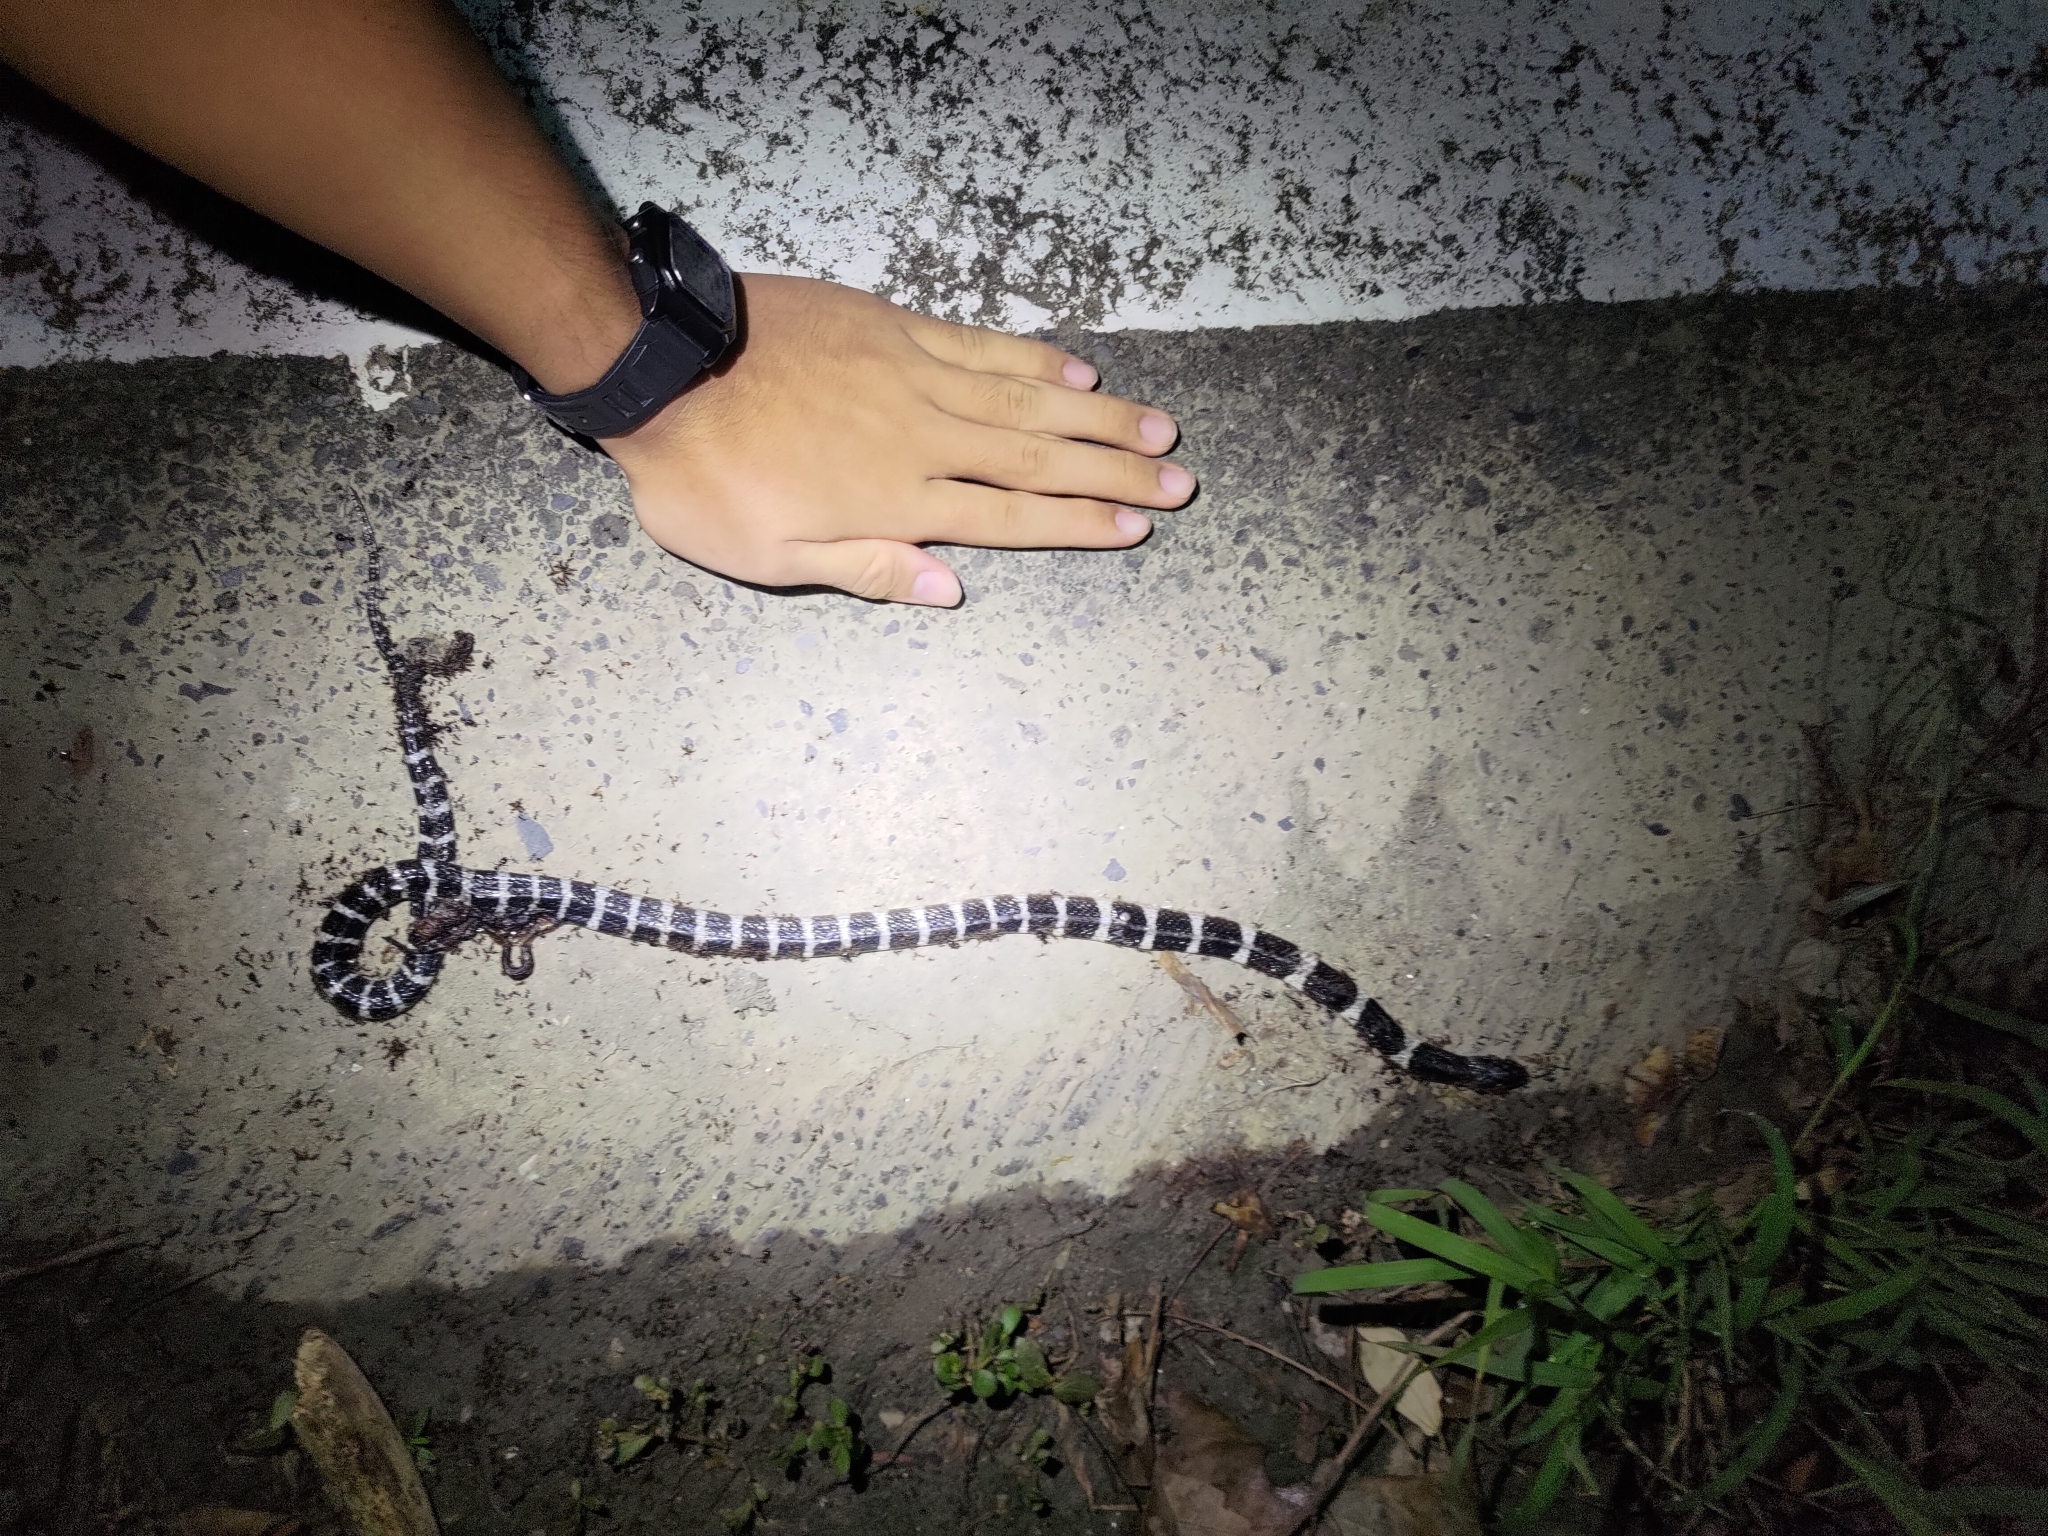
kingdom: Animalia
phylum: Chordata
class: Squamata
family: Elapidae
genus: Bungarus
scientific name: Bungarus multicinctus
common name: Many-banded krait
